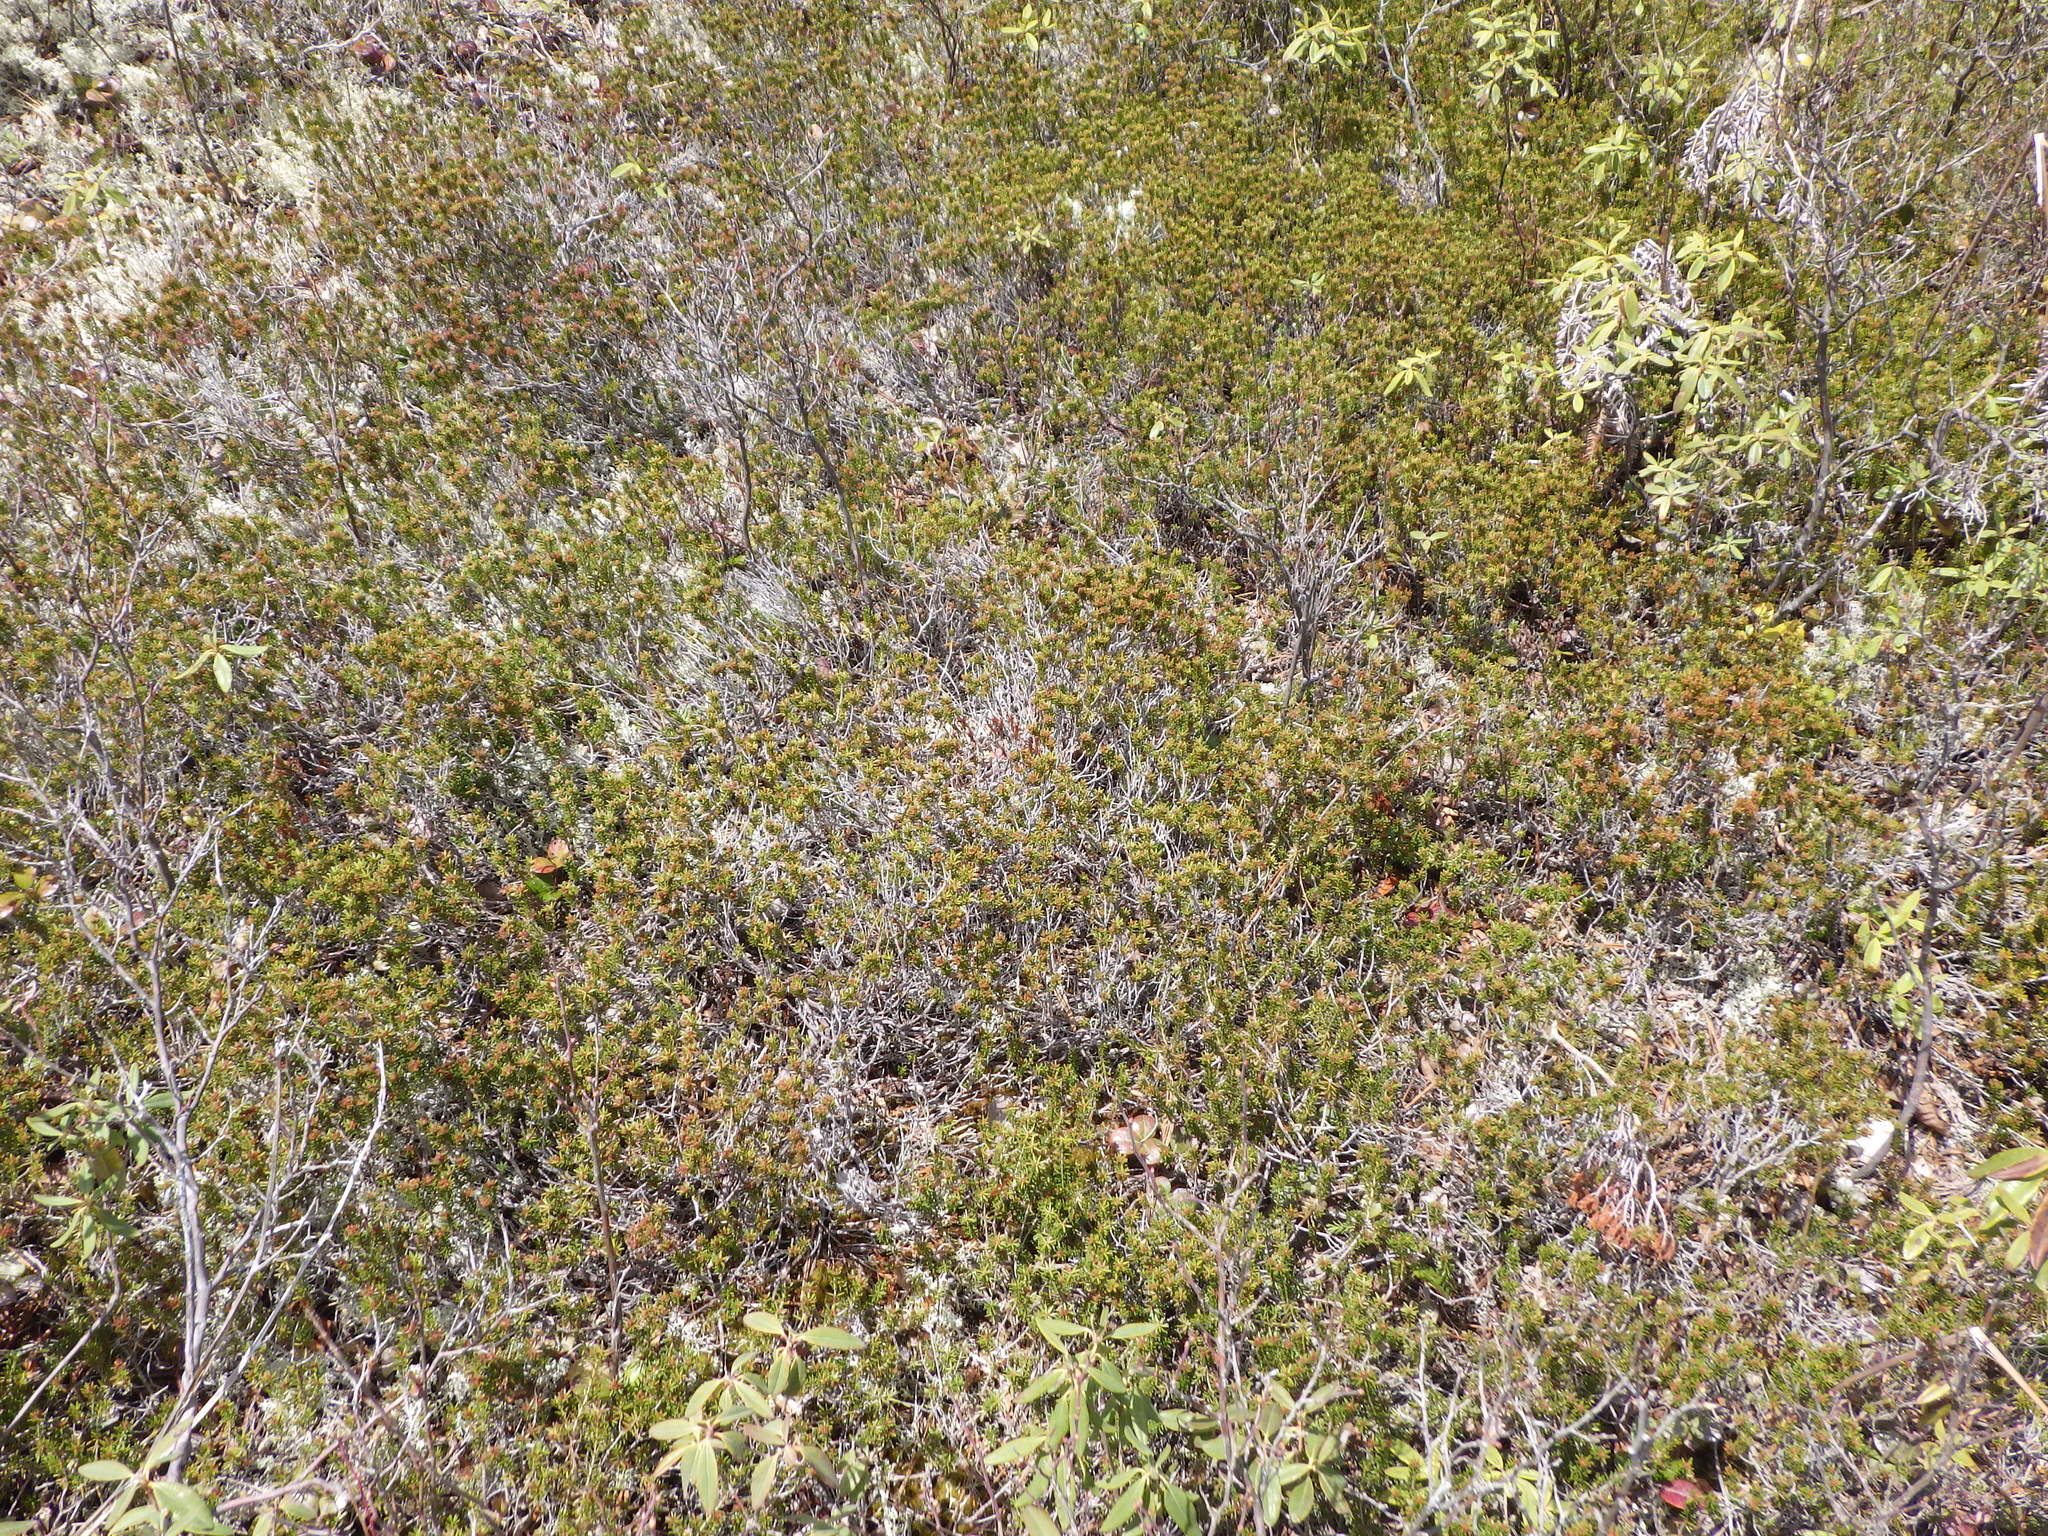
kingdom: Plantae
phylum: Tracheophyta
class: Magnoliopsida
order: Ericales
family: Ericaceae
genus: Corema
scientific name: Corema conradii
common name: Broom-crowberry
